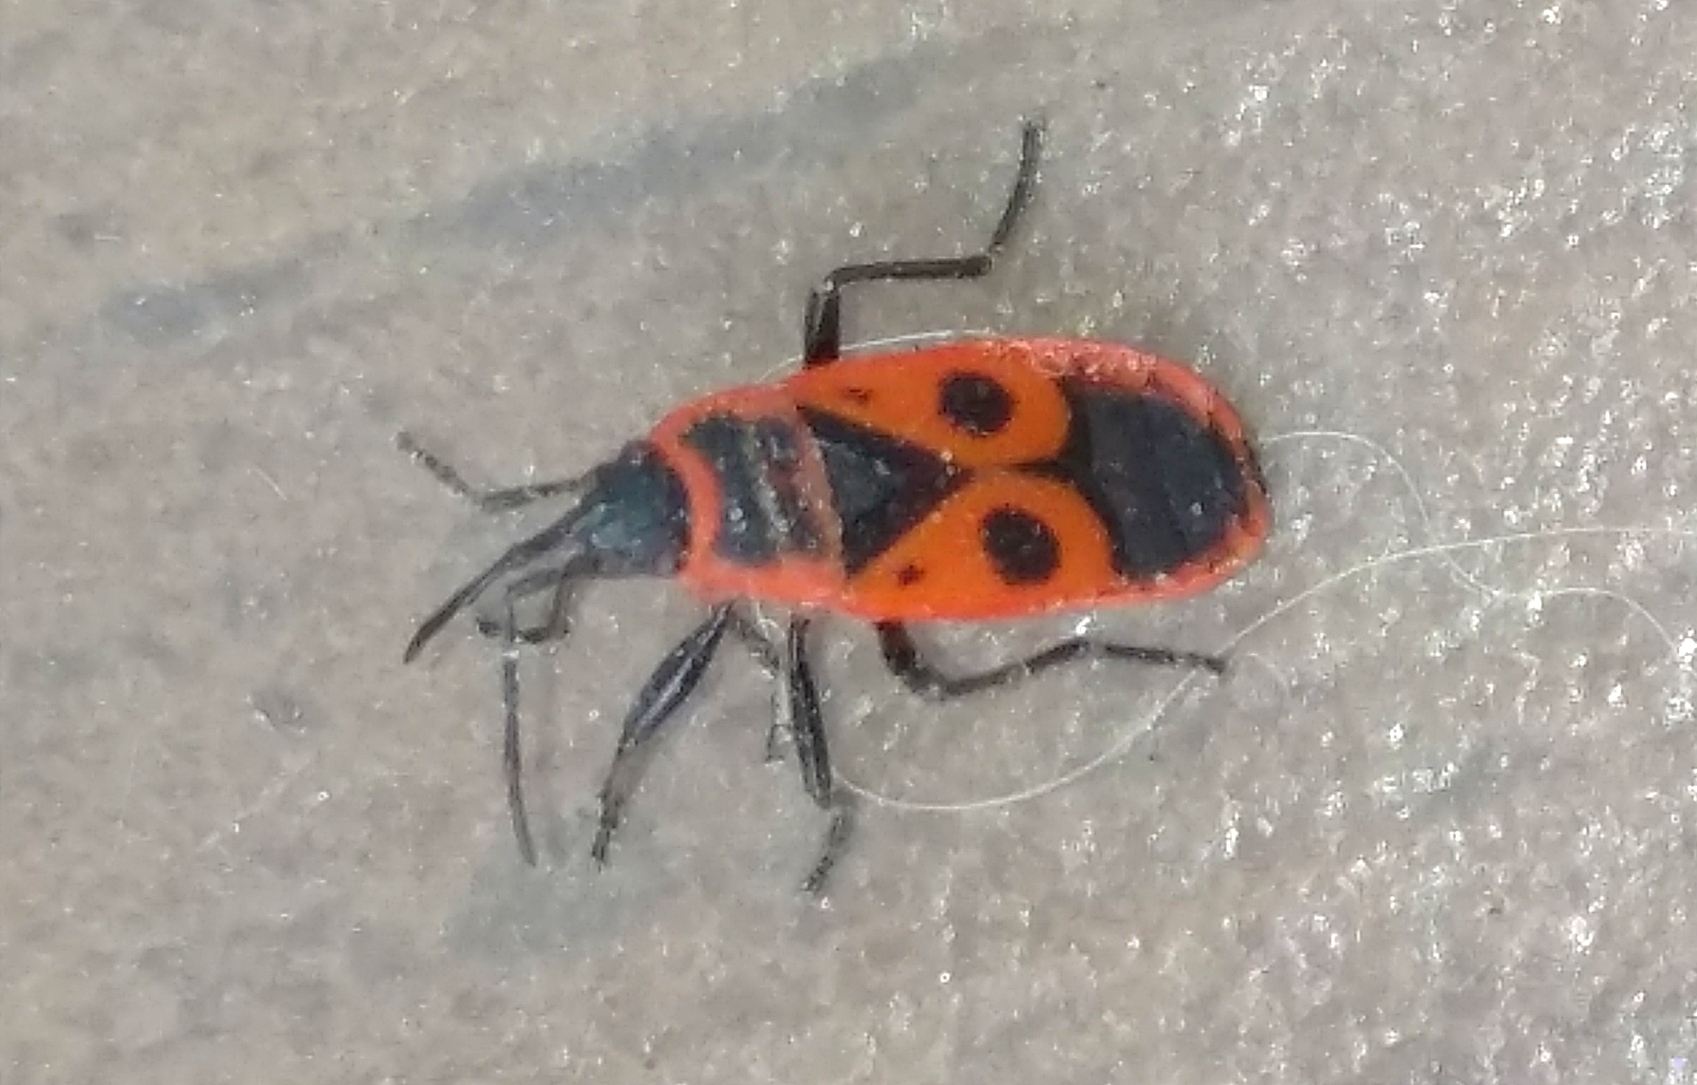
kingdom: Animalia
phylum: Arthropoda
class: Insecta
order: Hemiptera
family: Pyrrhocoridae
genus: Pyrrhocoris
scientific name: Pyrrhocoris apterus
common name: Firebug
